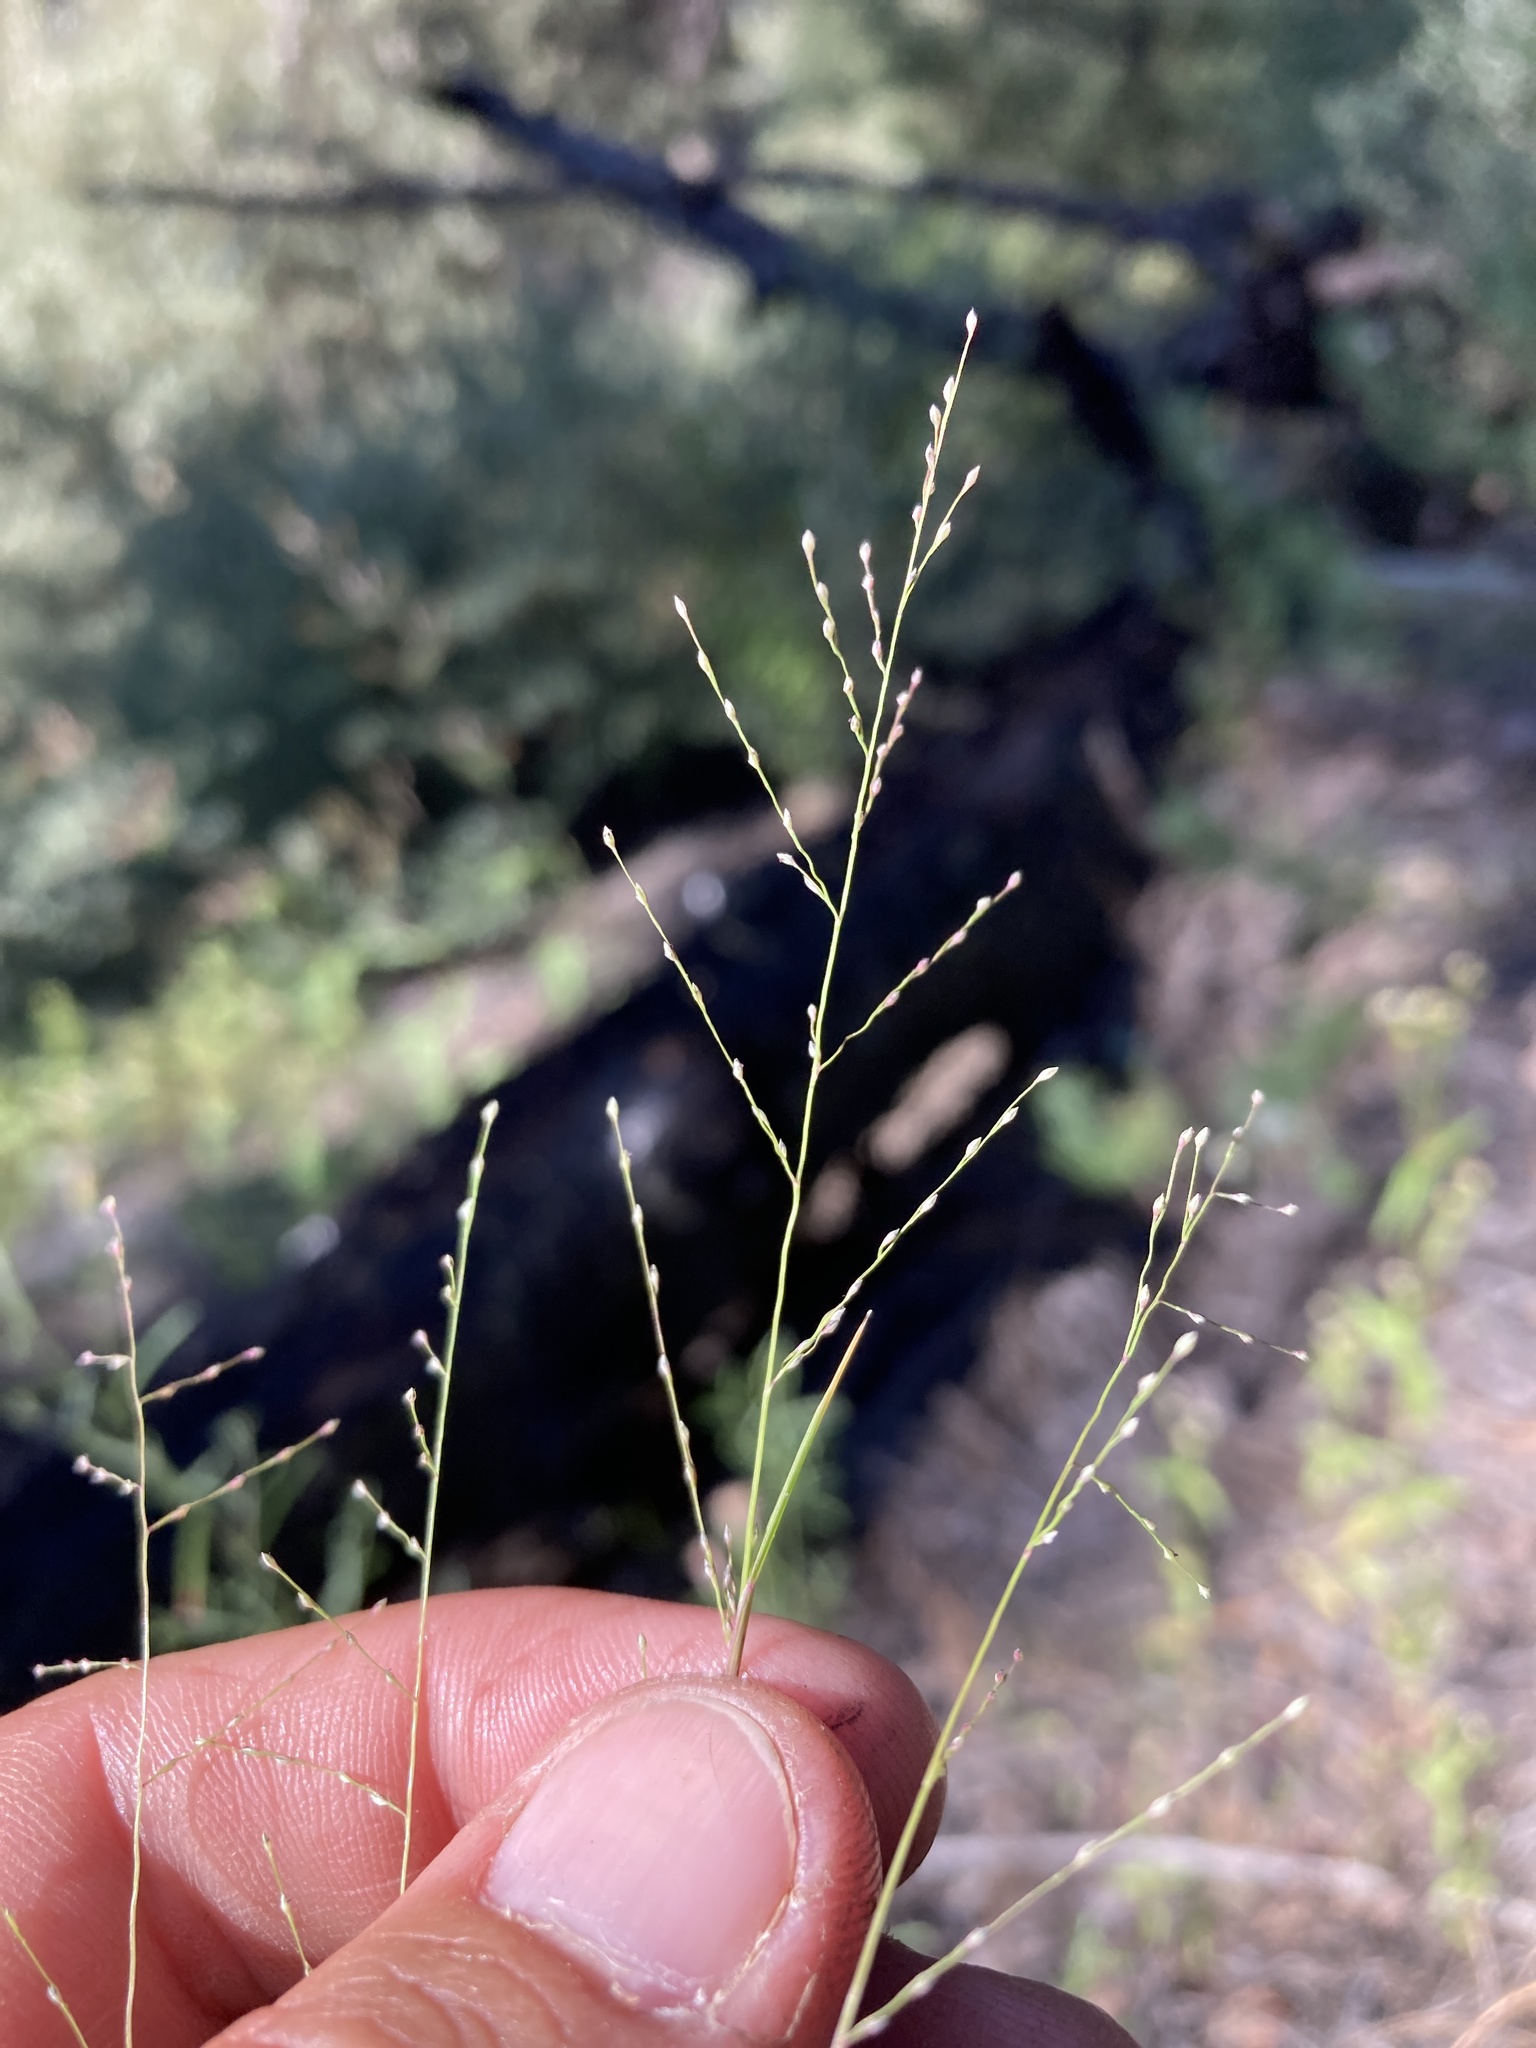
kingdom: Plantae
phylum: Tracheophyta
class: Liliopsida
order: Poales
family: Poaceae
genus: Muhlenbergia
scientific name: Muhlenbergia ramulosa
